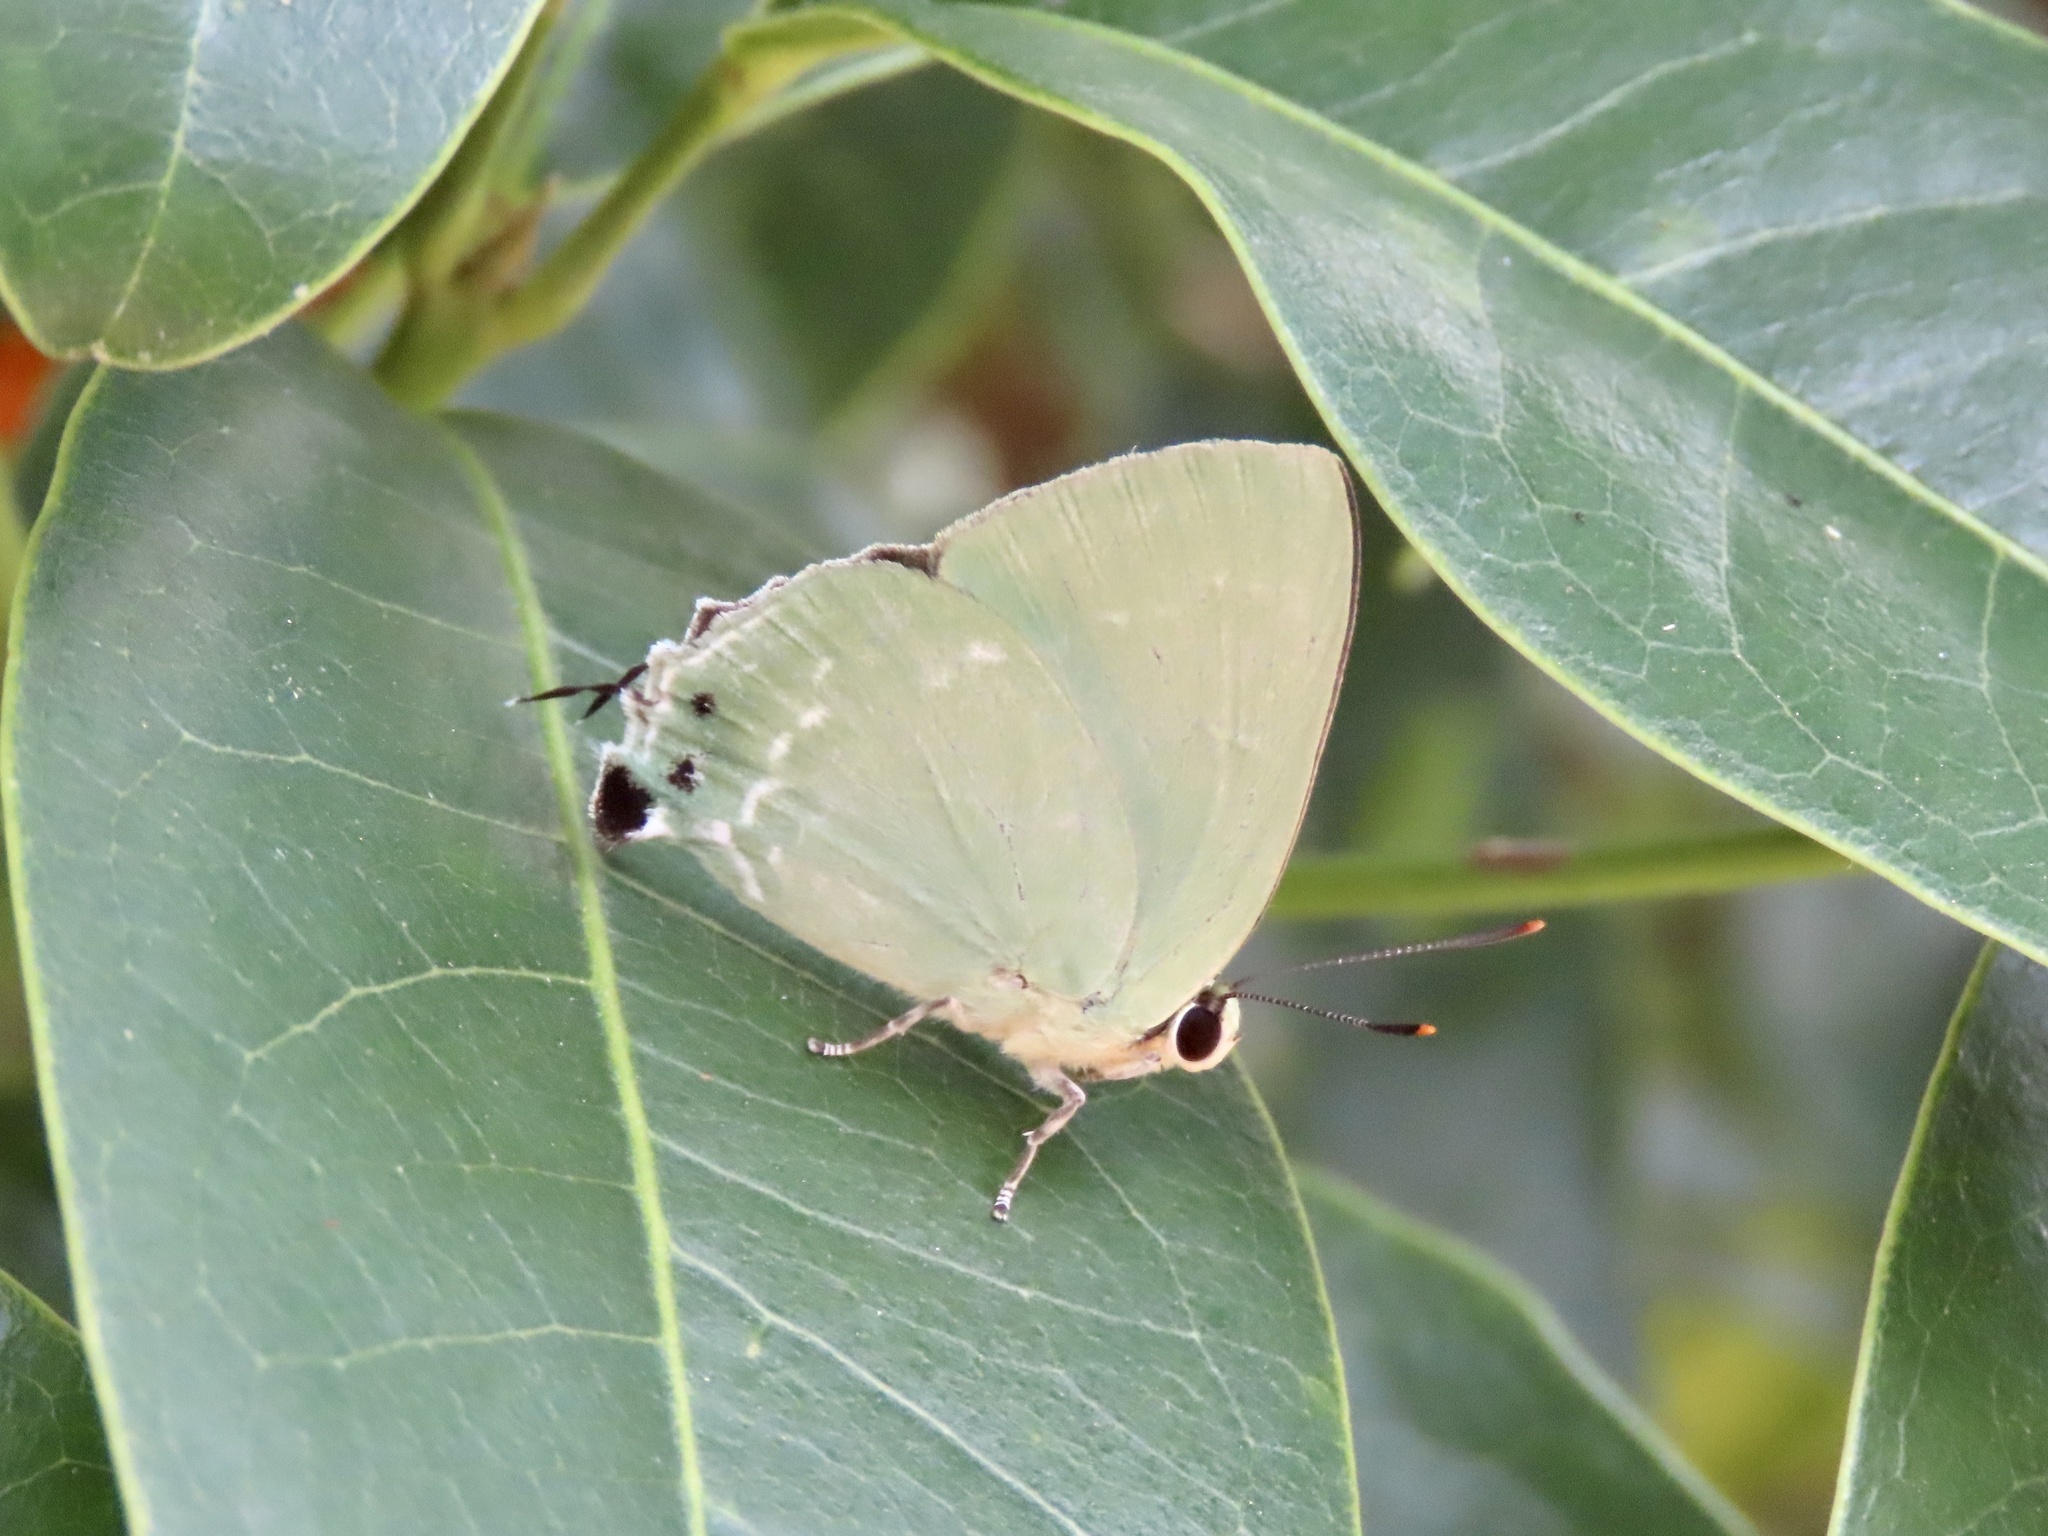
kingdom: Animalia
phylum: Arthropoda
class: Insecta
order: Lepidoptera
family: Lycaenidae
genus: Artipe
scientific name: Artipe eryx
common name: Green flash
